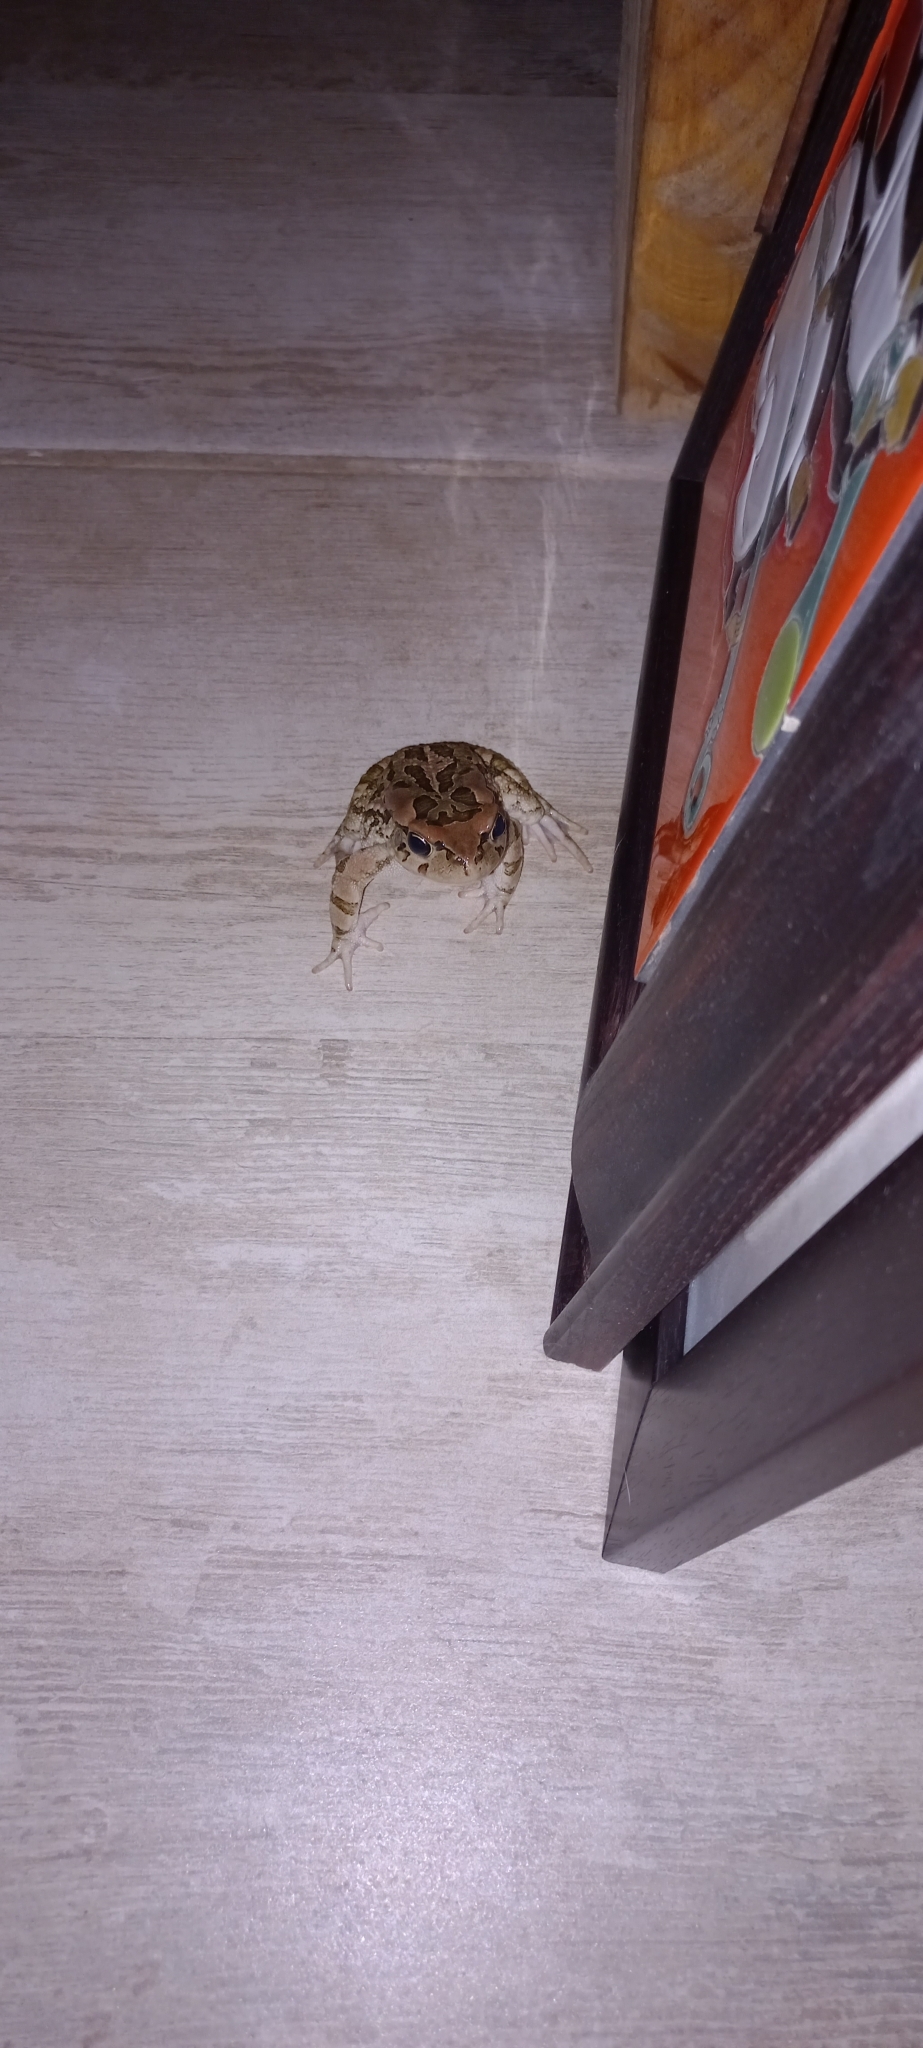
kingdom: Animalia
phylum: Chordata
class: Amphibia
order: Anura
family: Bufonidae
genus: Sclerophrys
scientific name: Sclerophrys capensis
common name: Ranger’s toad
